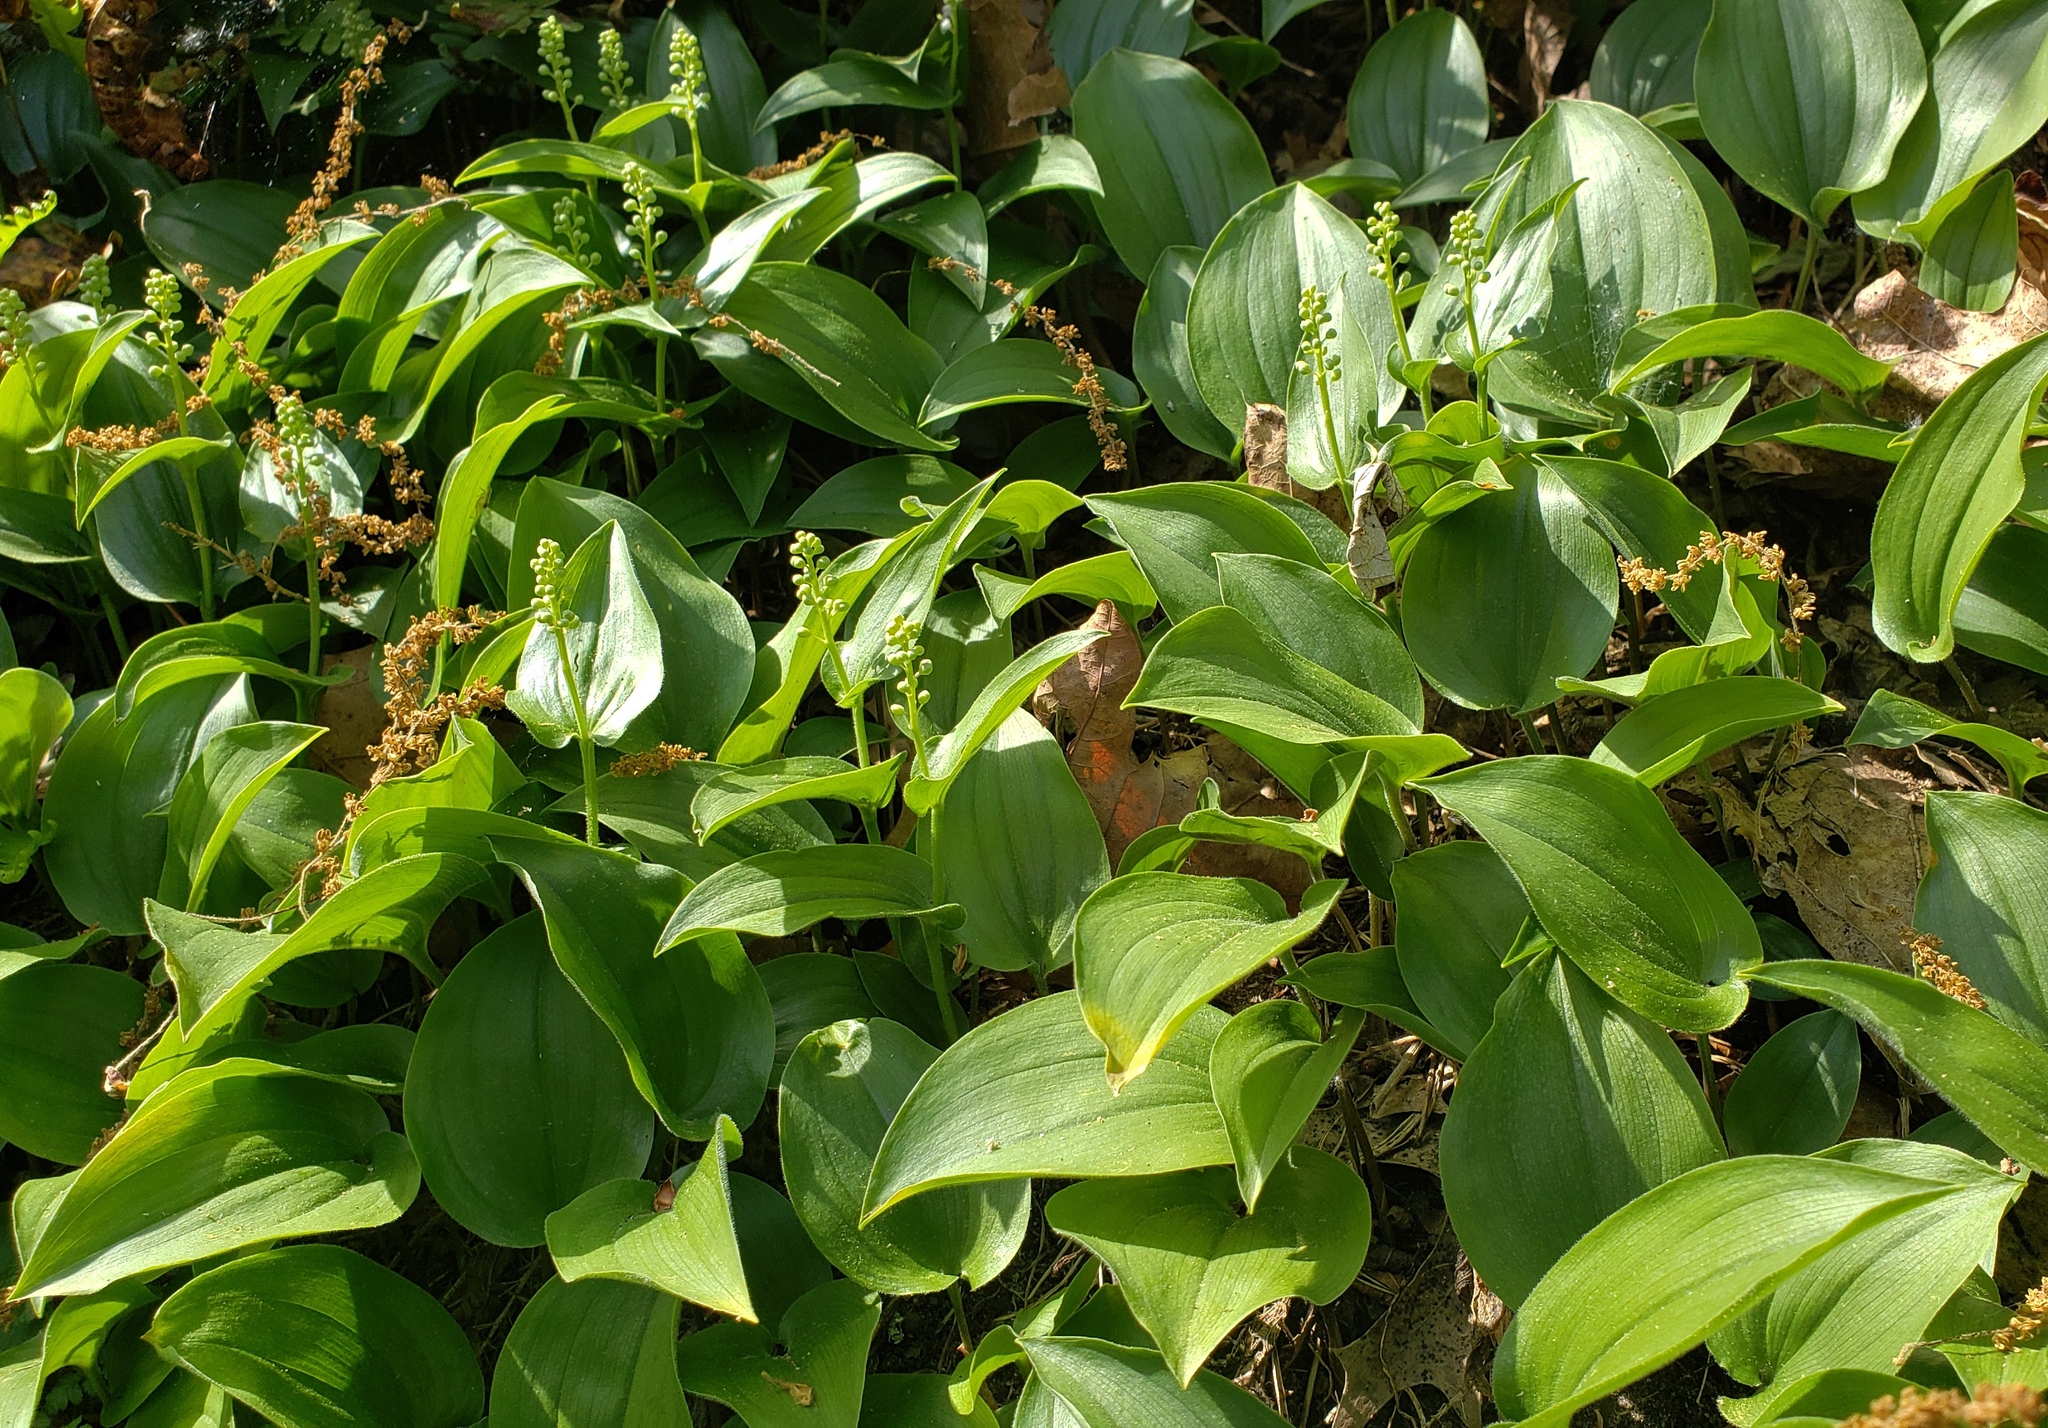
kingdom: Plantae
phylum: Tracheophyta
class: Liliopsida
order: Asparagales
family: Asparagaceae
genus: Maianthemum
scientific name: Maianthemum canadense
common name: False lily-of-the-valley
